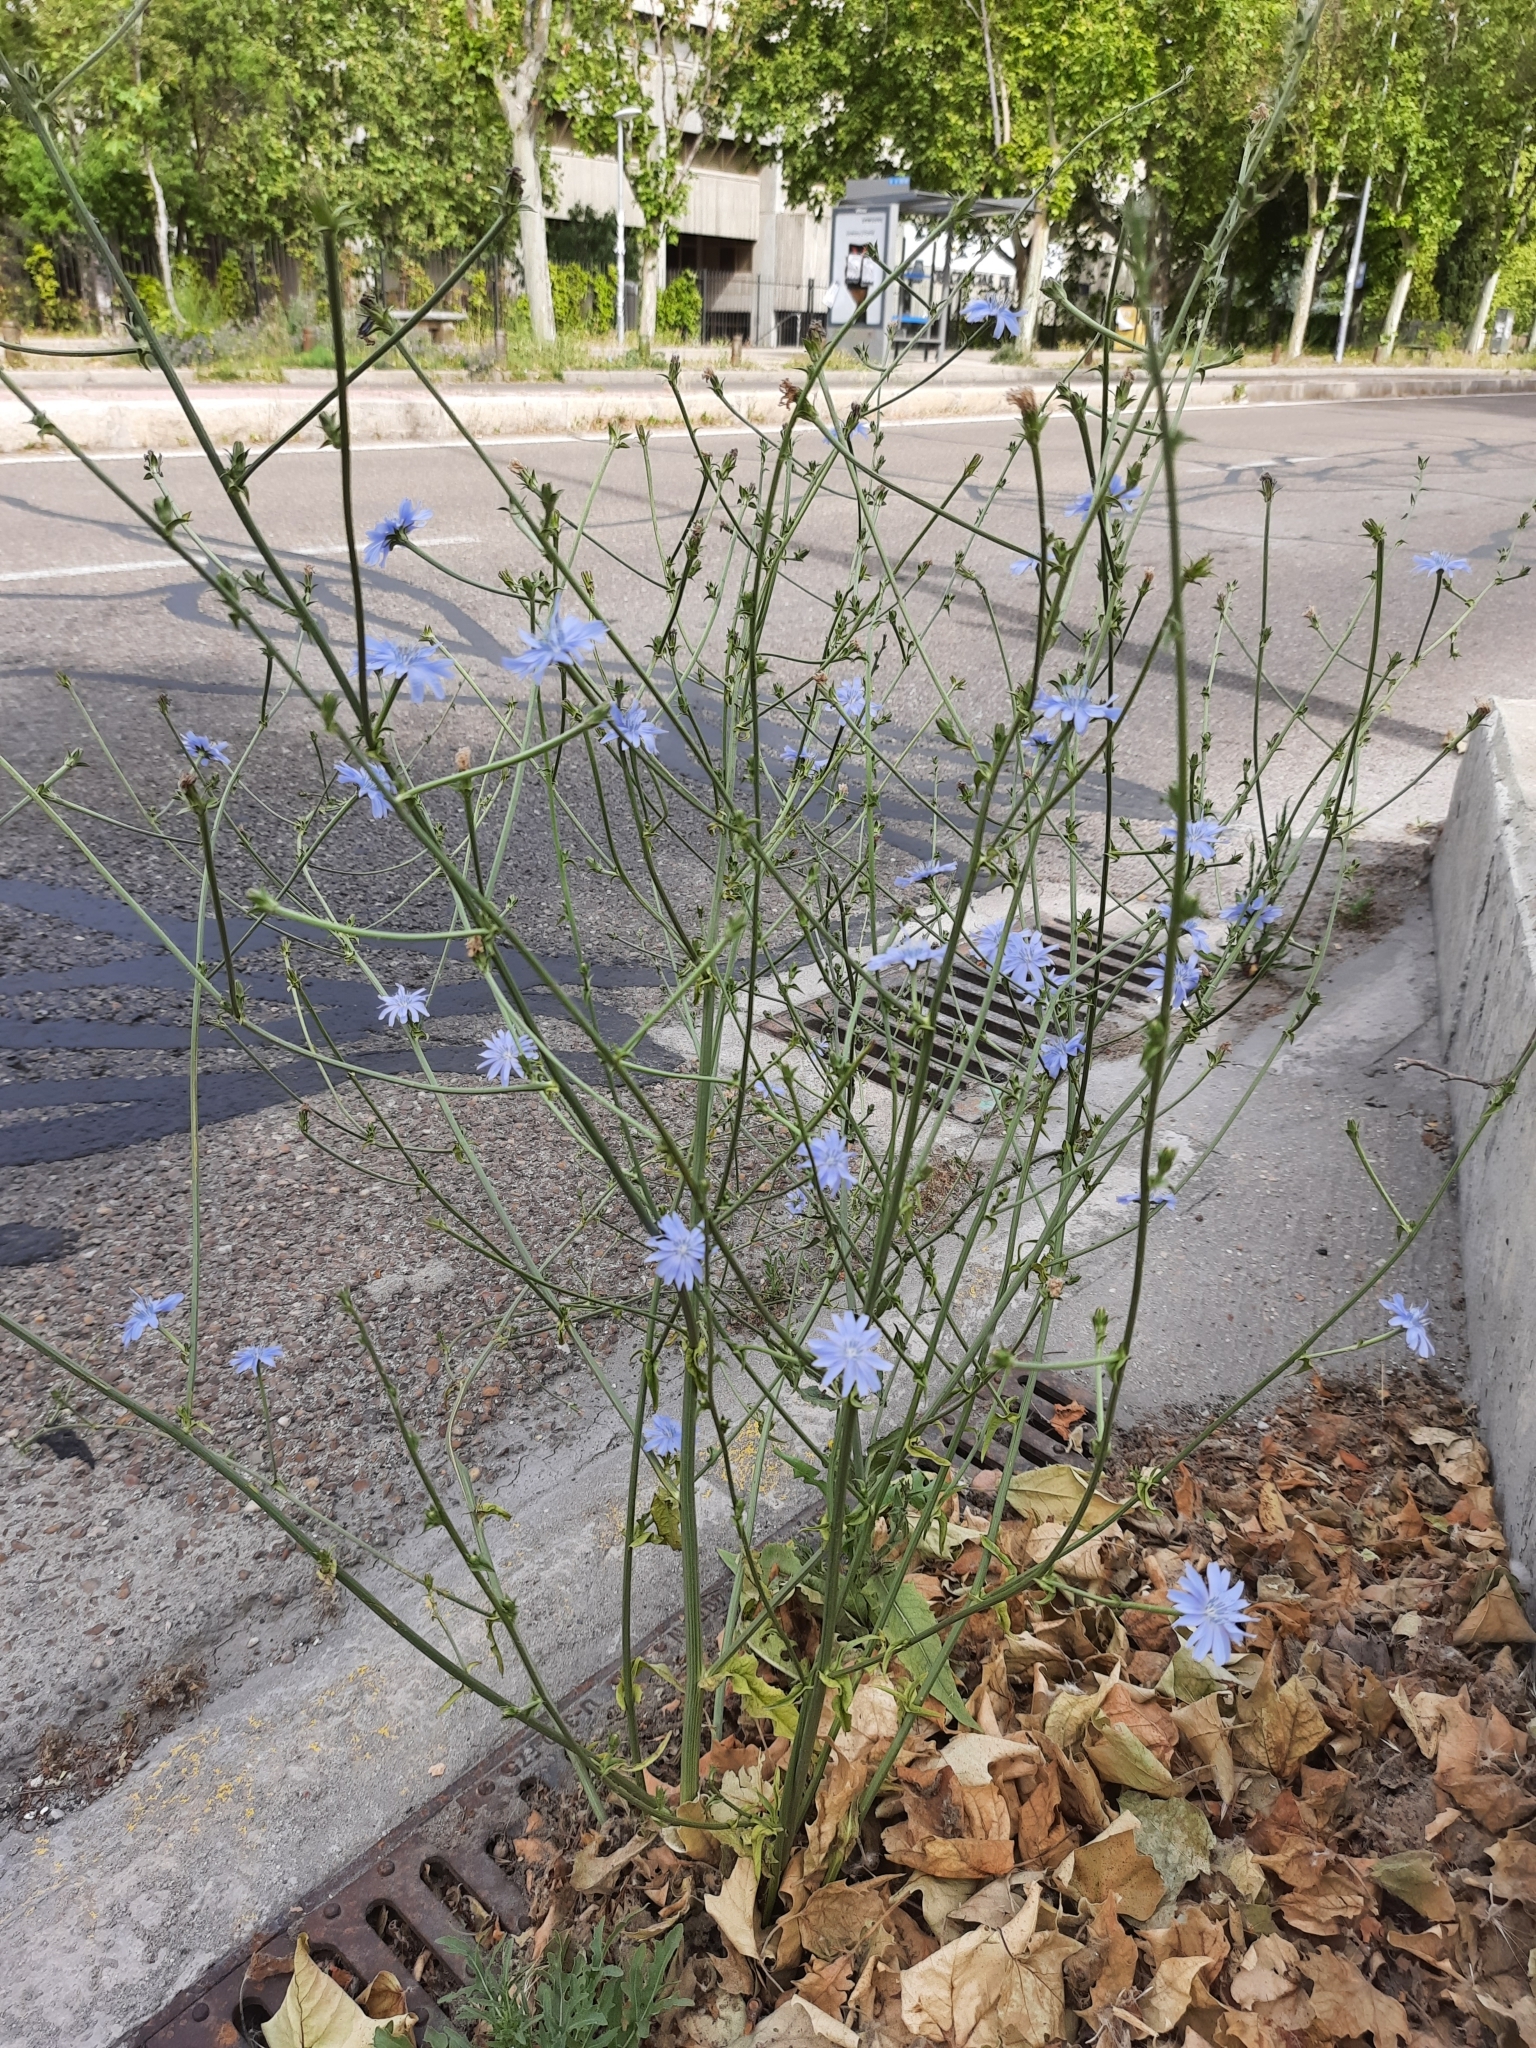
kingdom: Plantae
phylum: Tracheophyta
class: Magnoliopsida
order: Asterales
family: Asteraceae
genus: Cichorium
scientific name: Cichorium intybus
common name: Chicory
